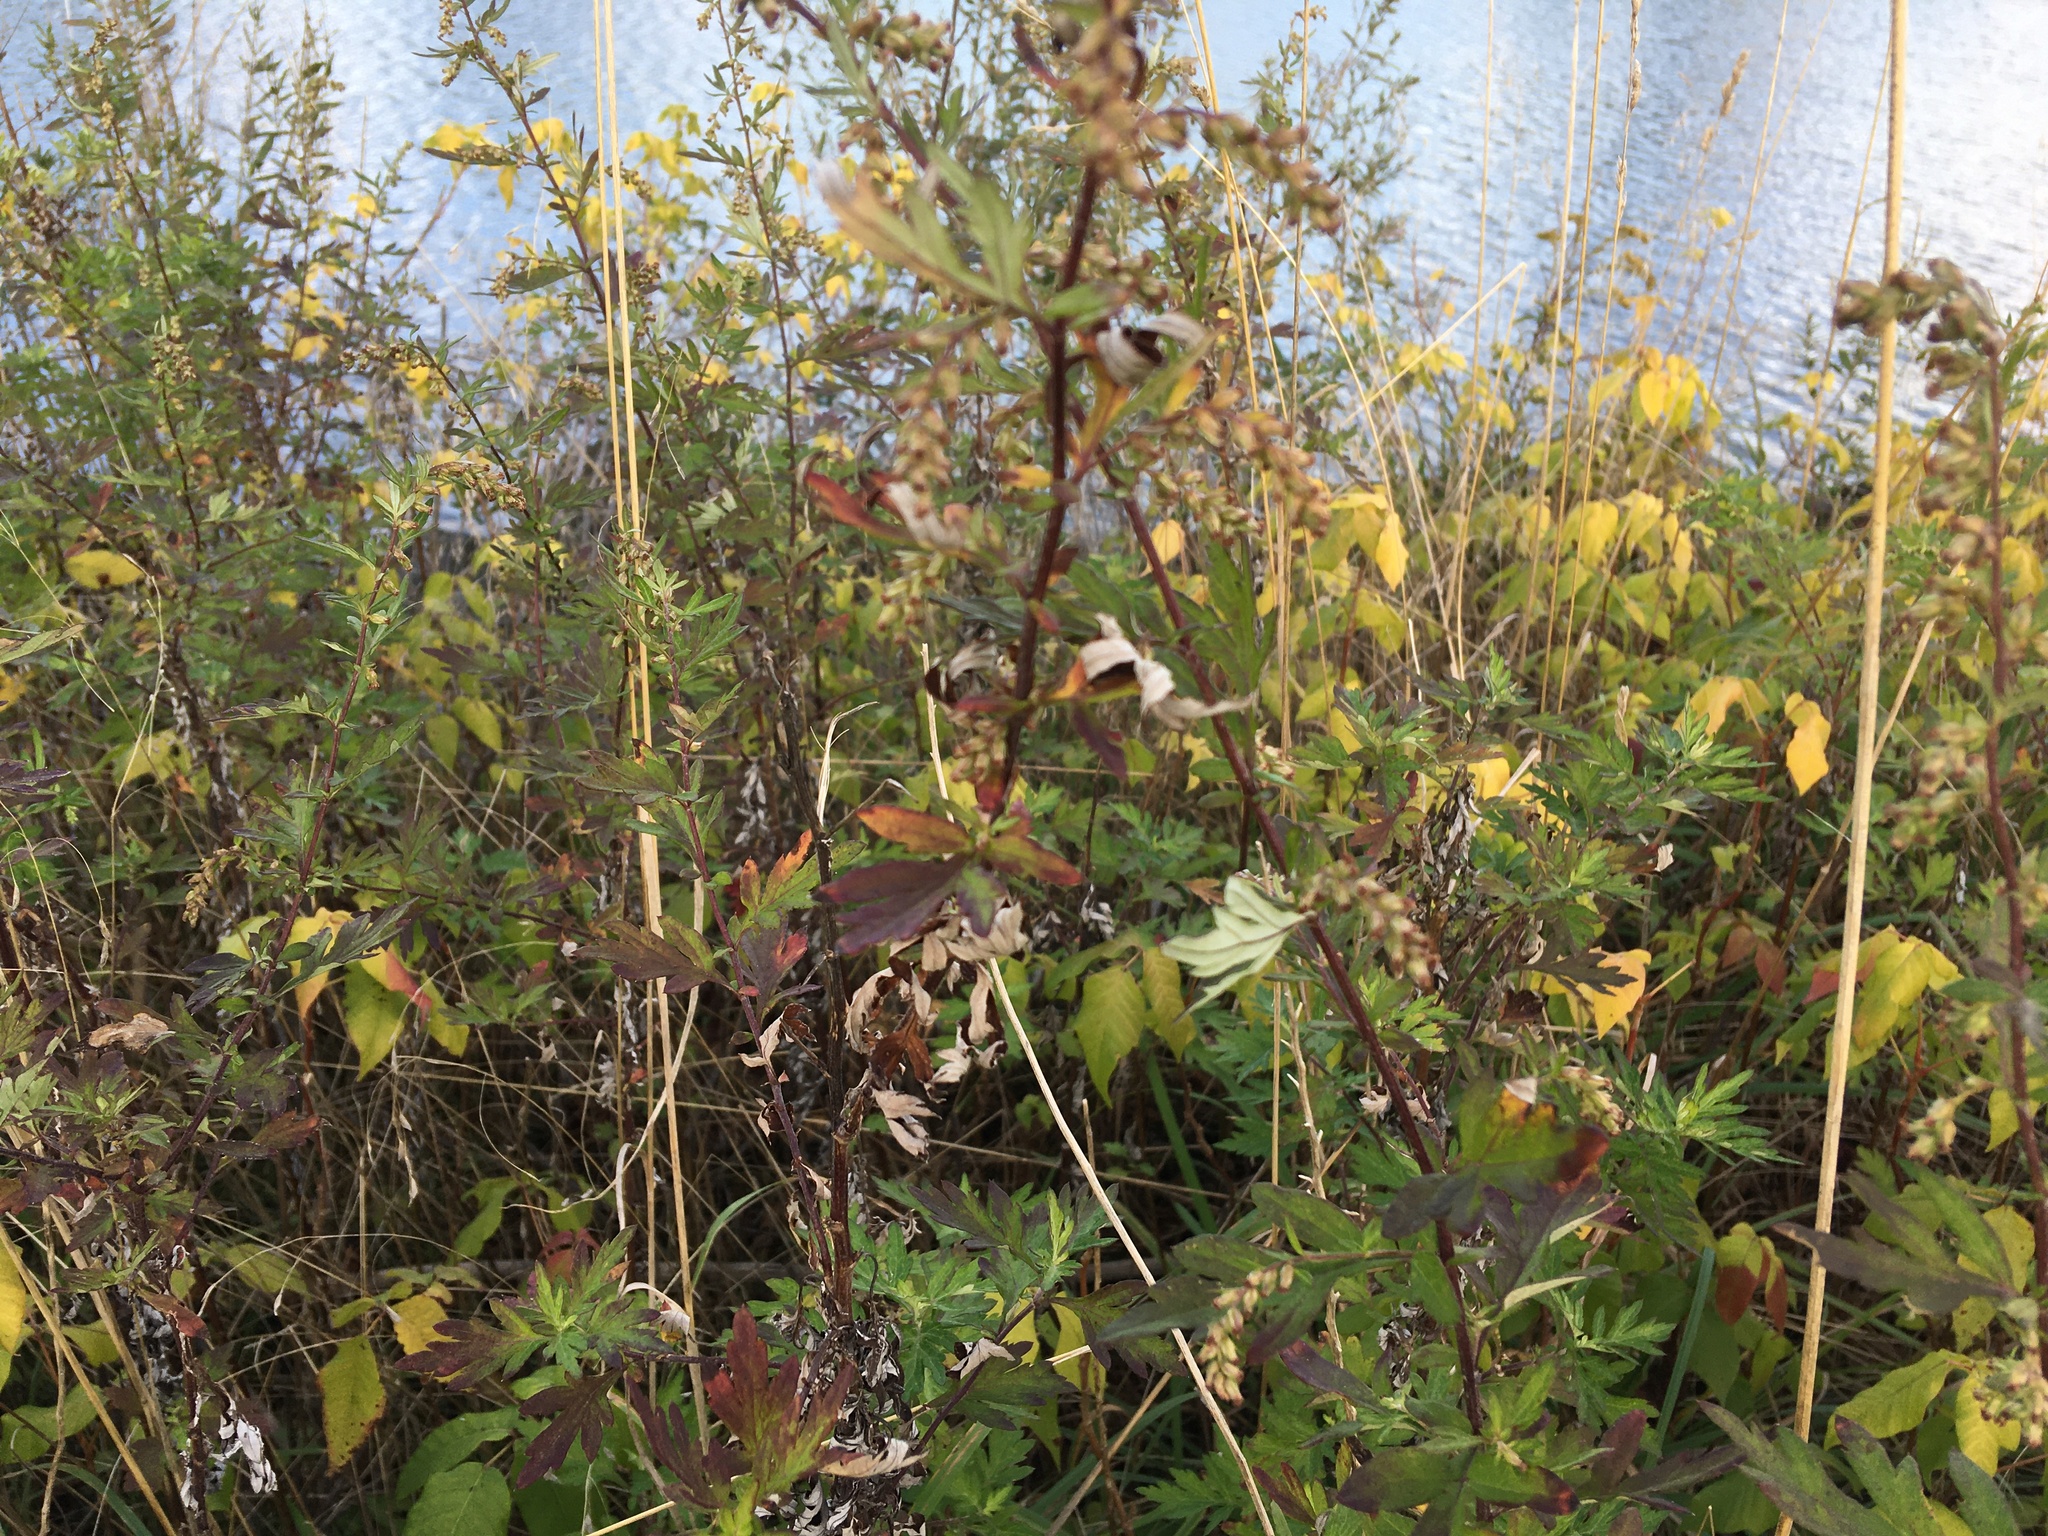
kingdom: Plantae
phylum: Tracheophyta
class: Magnoliopsida
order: Asterales
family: Asteraceae
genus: Artemisia
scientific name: Artemisia vulgaris
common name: Mugwort
